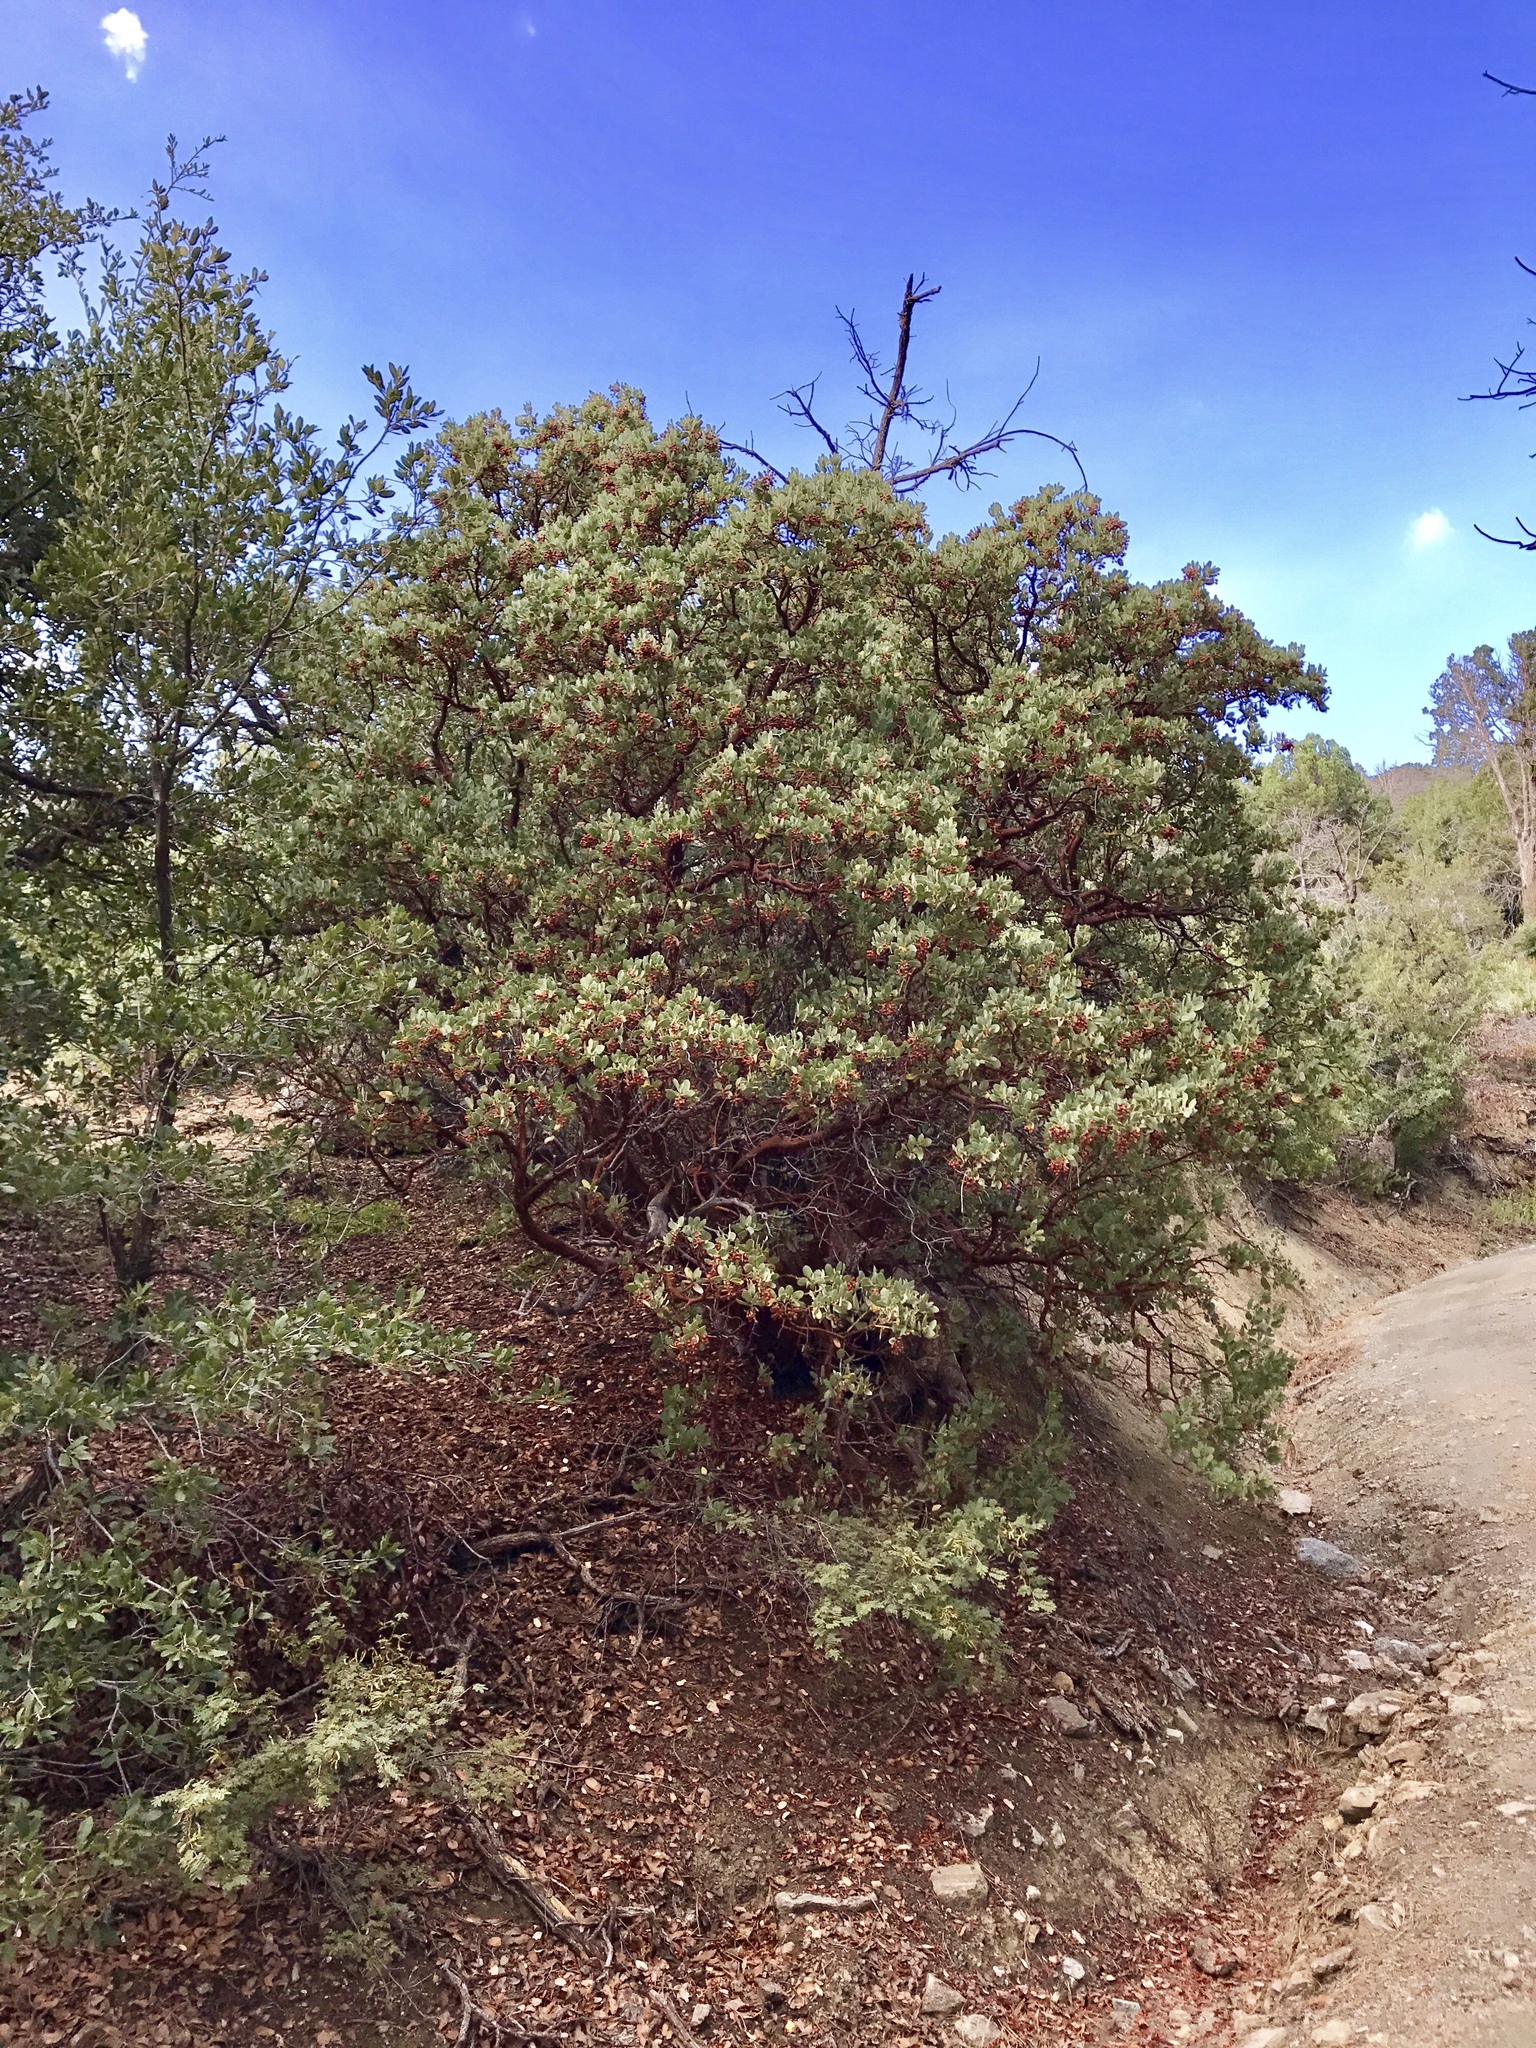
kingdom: Plantae
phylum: Tracheophyta
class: Magnoliopsida
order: Ericales
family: Ericaceae
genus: Arctostaphylos
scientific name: Arctostaphylos pringlei
